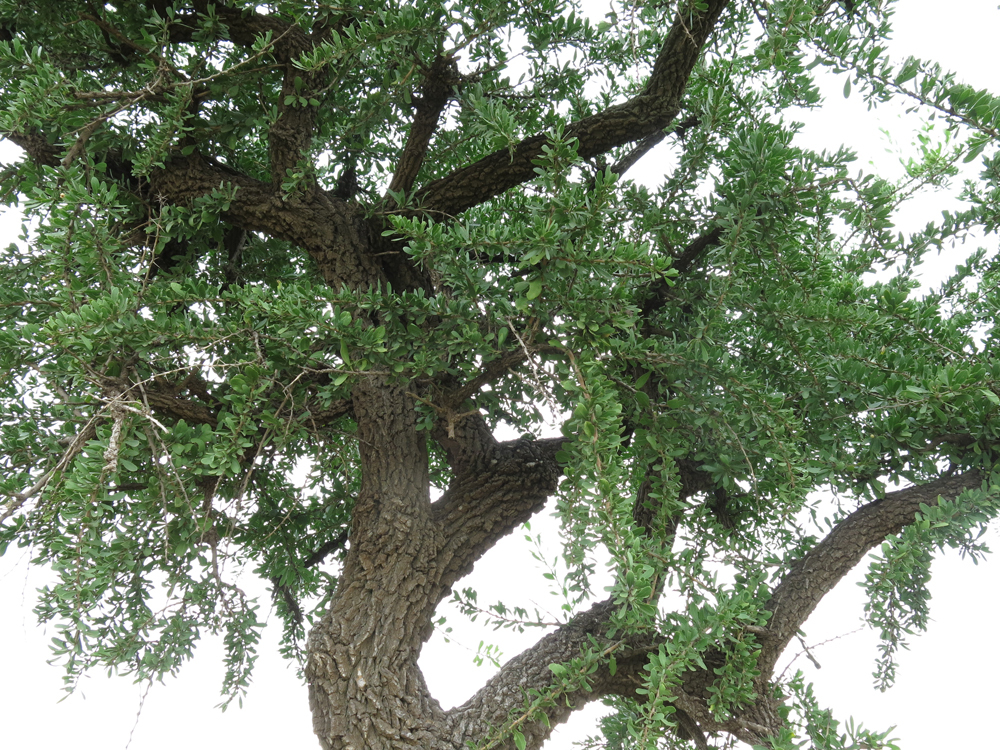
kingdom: Plantae
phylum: Tracheophyta
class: Magnoliopsida
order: Celastrales
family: Celastraceae
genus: Gymnosporia
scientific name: Gymnosporia buxifolia
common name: Common spike-thorn
